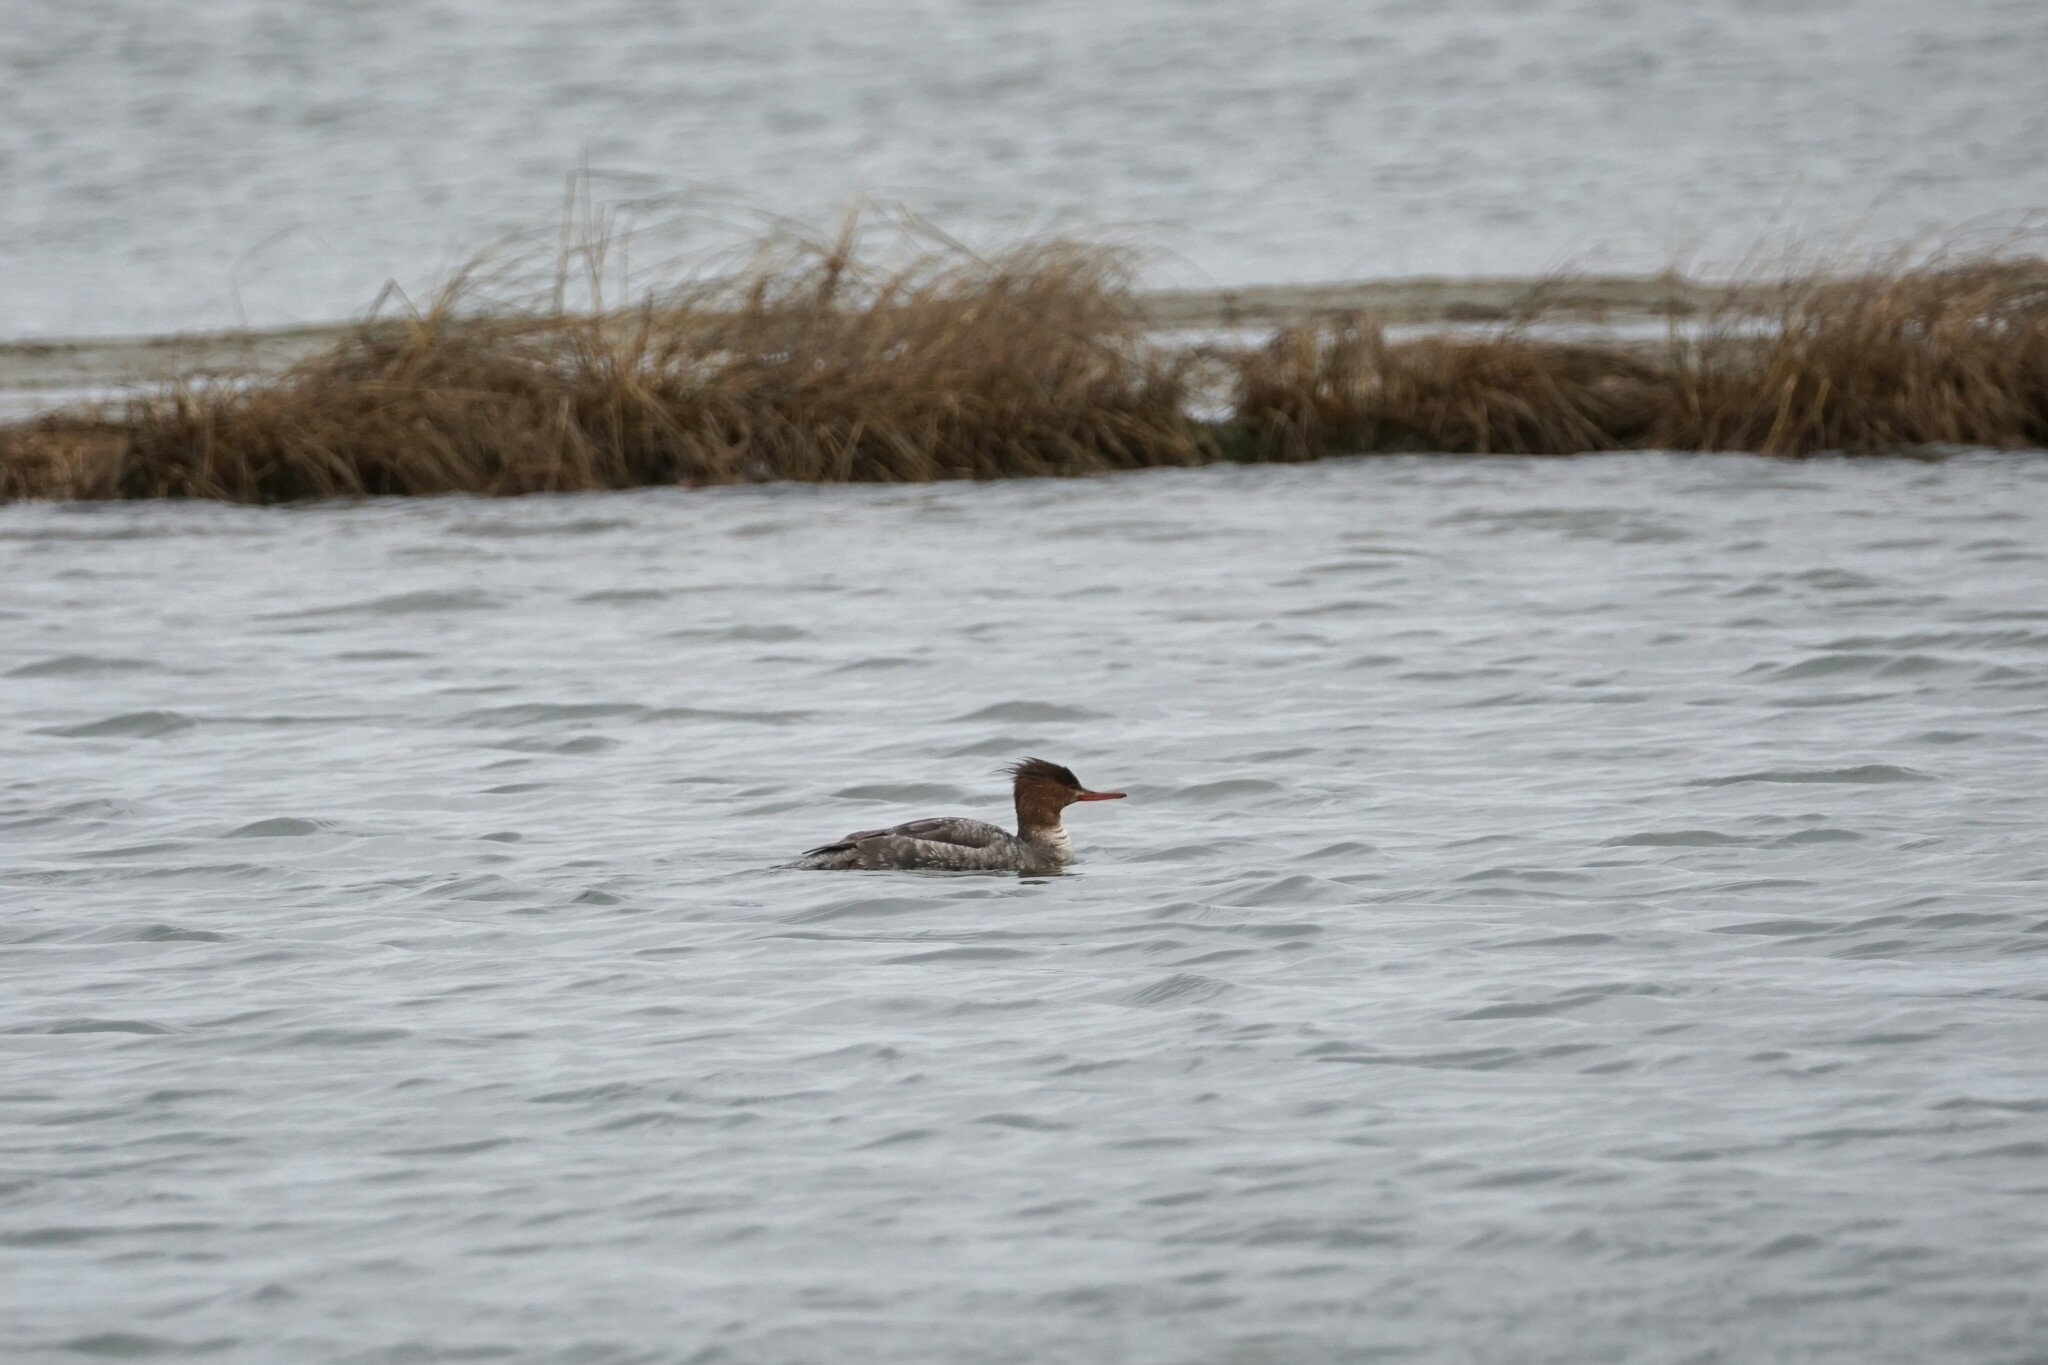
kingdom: Animalia
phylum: Chordata
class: Aves
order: Anseriformes
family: Anatidae
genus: Mergus
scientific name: Mergus serrator
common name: Red-breasted merganser
